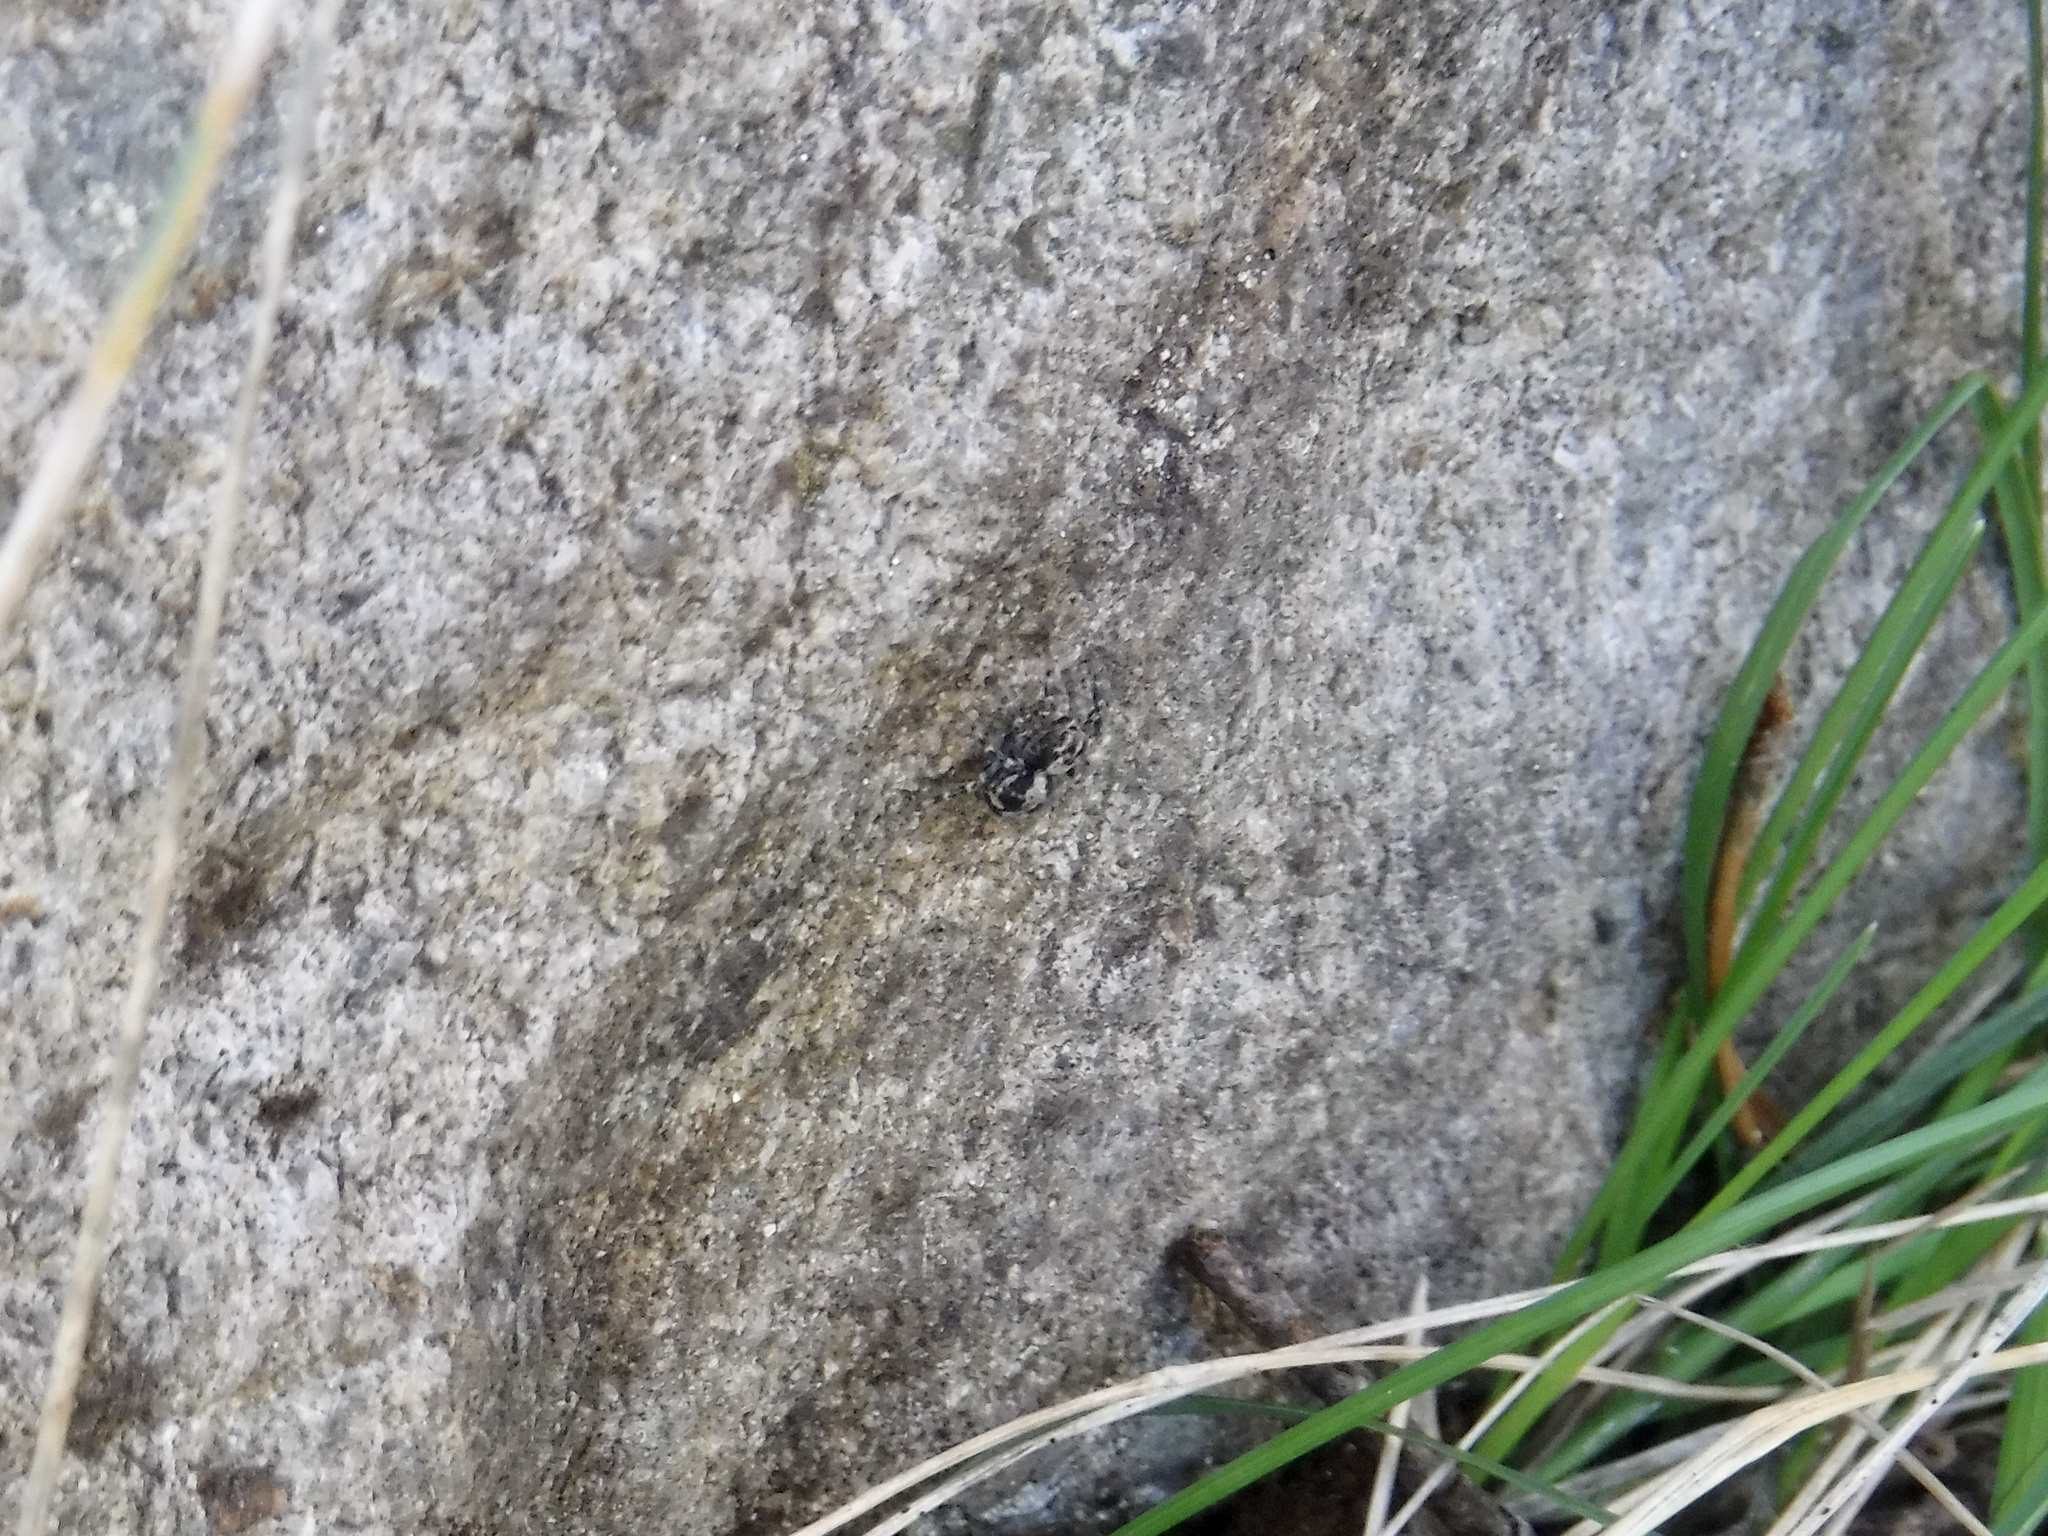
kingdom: Animalia
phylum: Arthropoda
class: Arachnida
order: Araneae
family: Salticidae
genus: Naphrys
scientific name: Naphrys pulex
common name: Flea jumping spider
